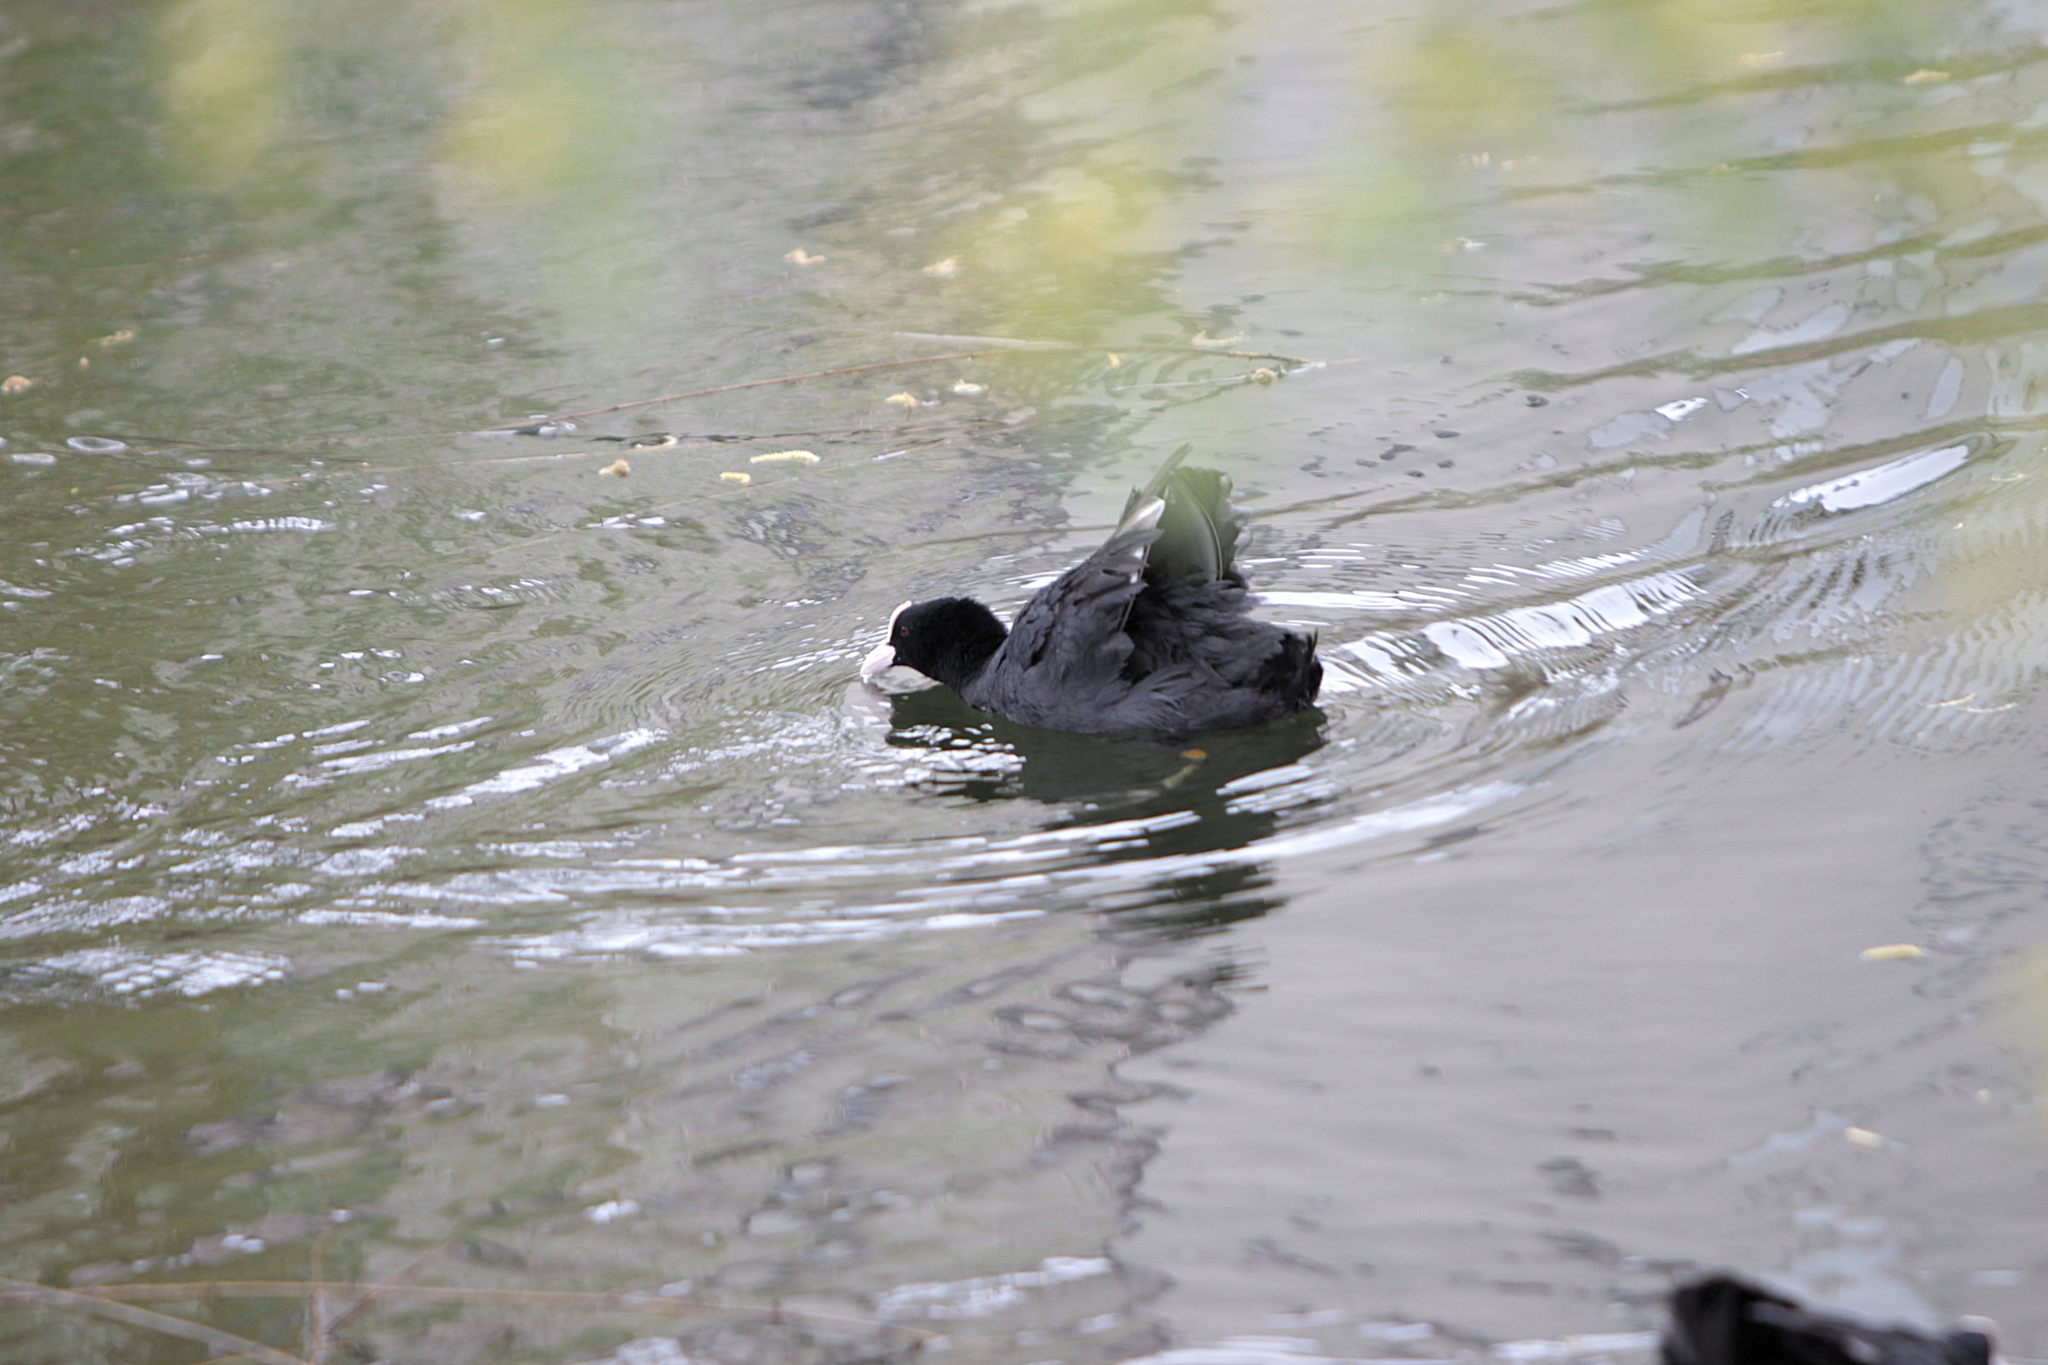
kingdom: Animalia
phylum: Chordata
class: Aves
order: Gruiformes
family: Rallidae
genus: Fulica
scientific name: Fulica atra
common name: Eurasian coot
